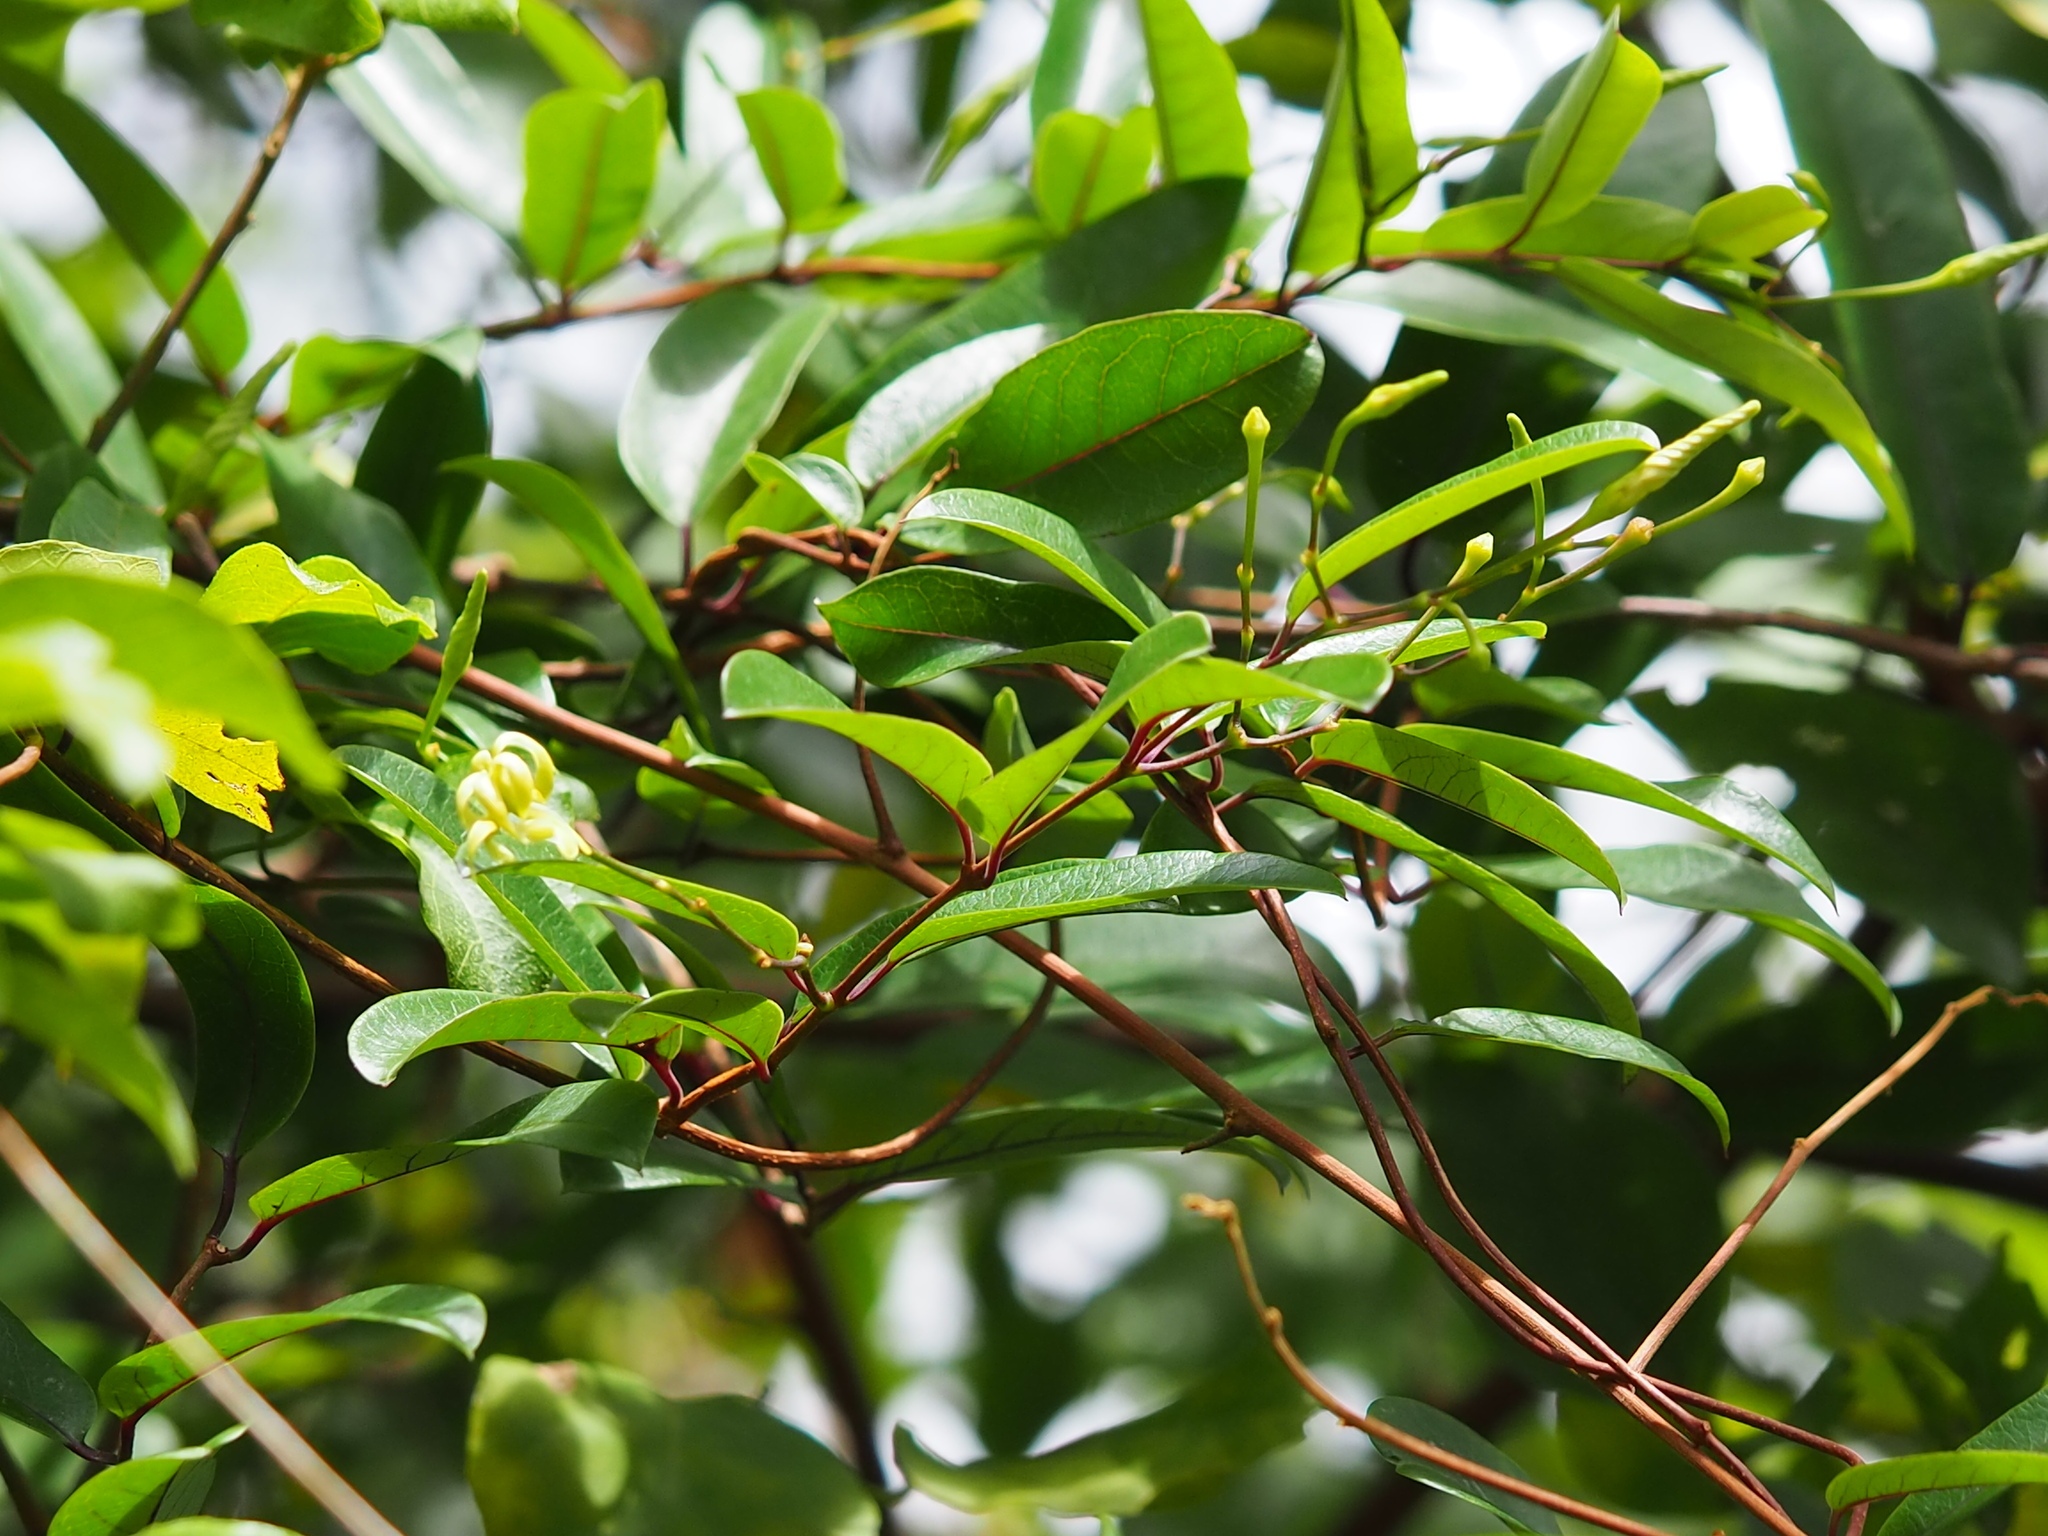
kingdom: Plantae
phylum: Tracheophyta
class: Magnoliopsida
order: Gentianales
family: Apocynaceae
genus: Cryptolepis
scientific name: Cryptolepis sinensis
